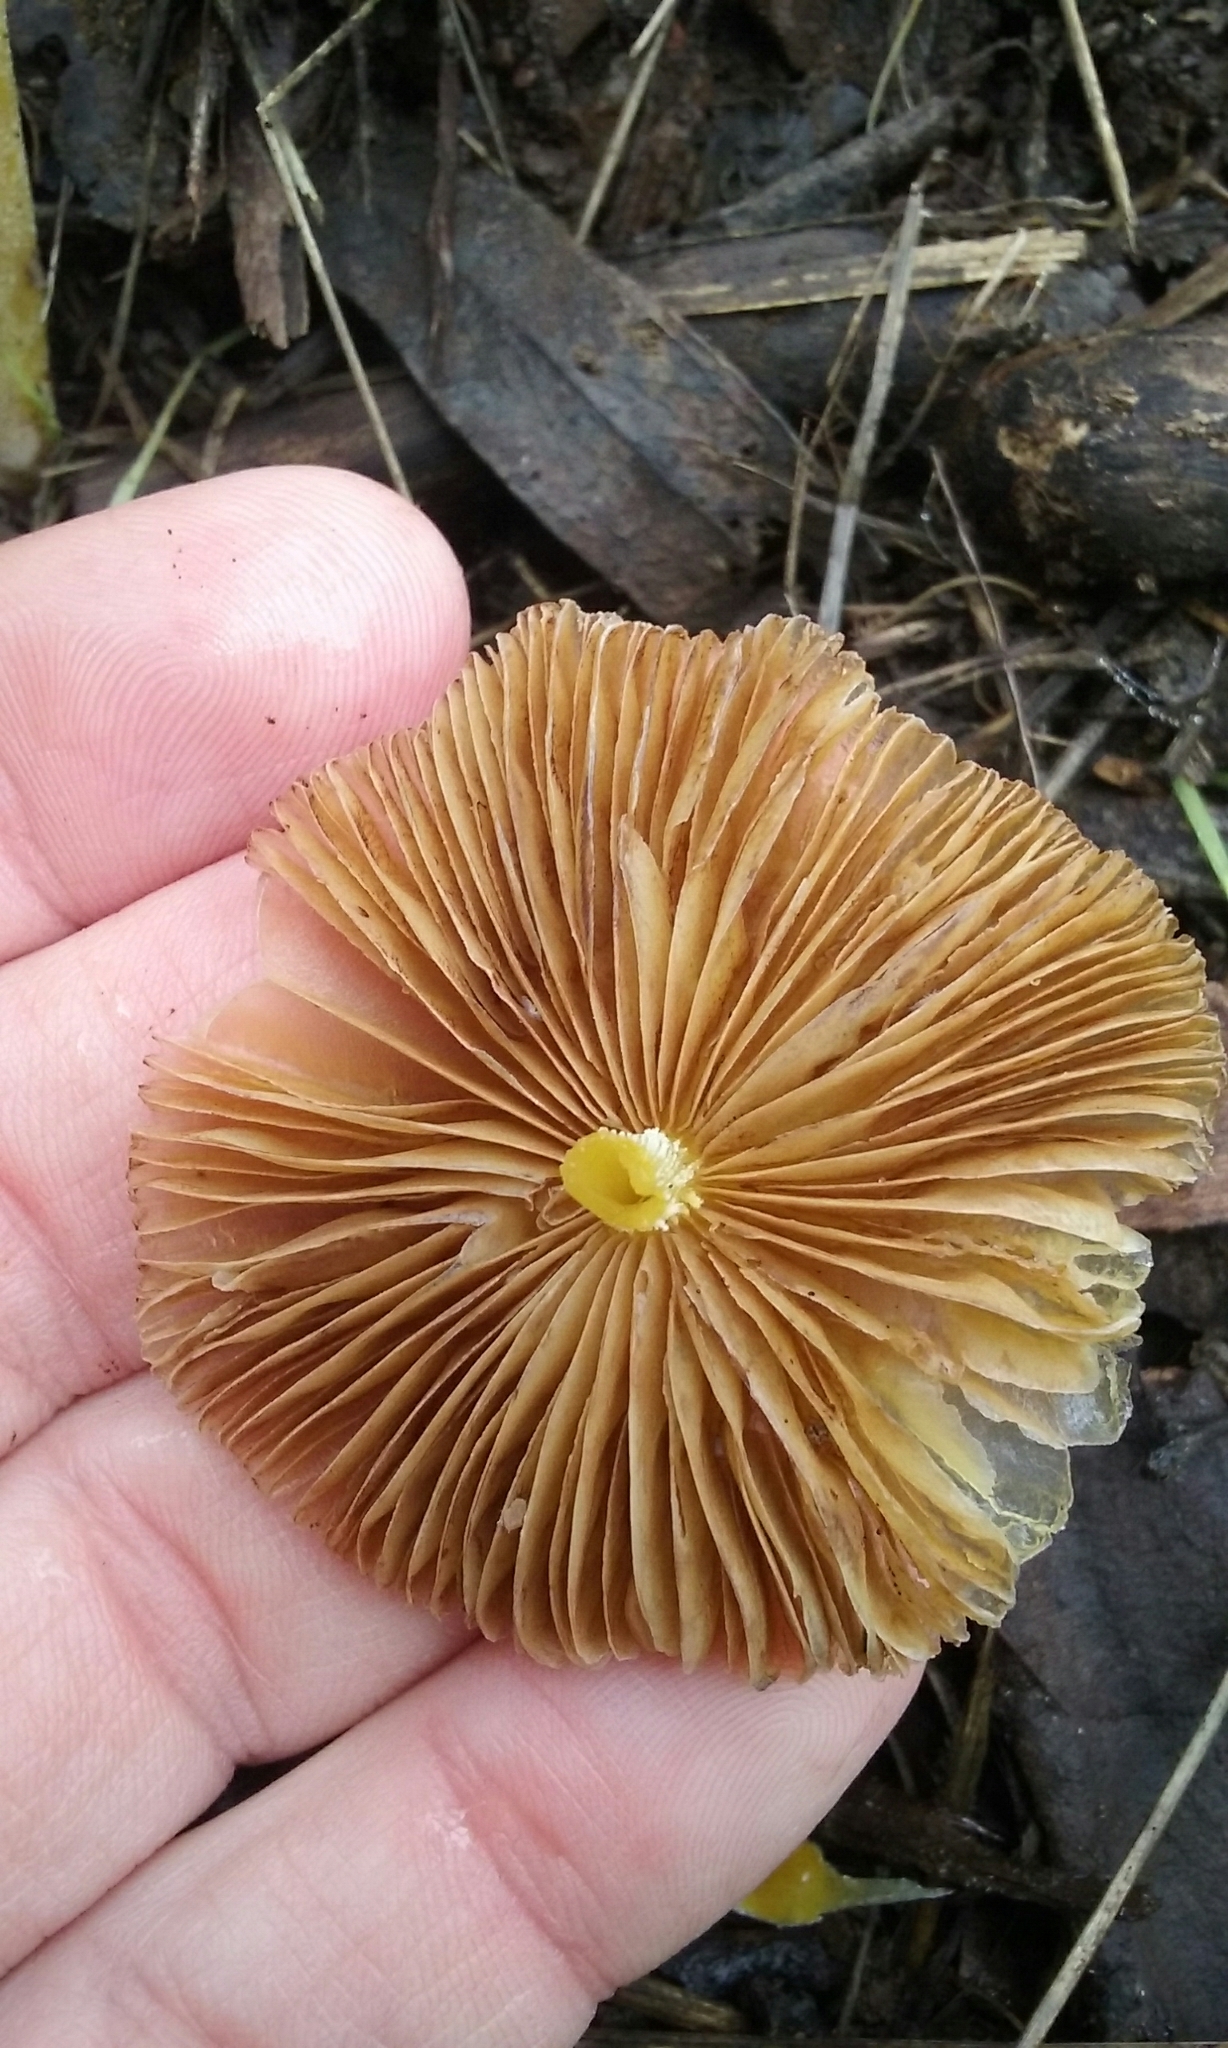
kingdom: Fungi
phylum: Basidiomycota
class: Agaricomycetes
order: Agaricales
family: Bolbitiaceae
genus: Bolbitius
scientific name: Bolbitius titubans
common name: Yellow fieldcap
